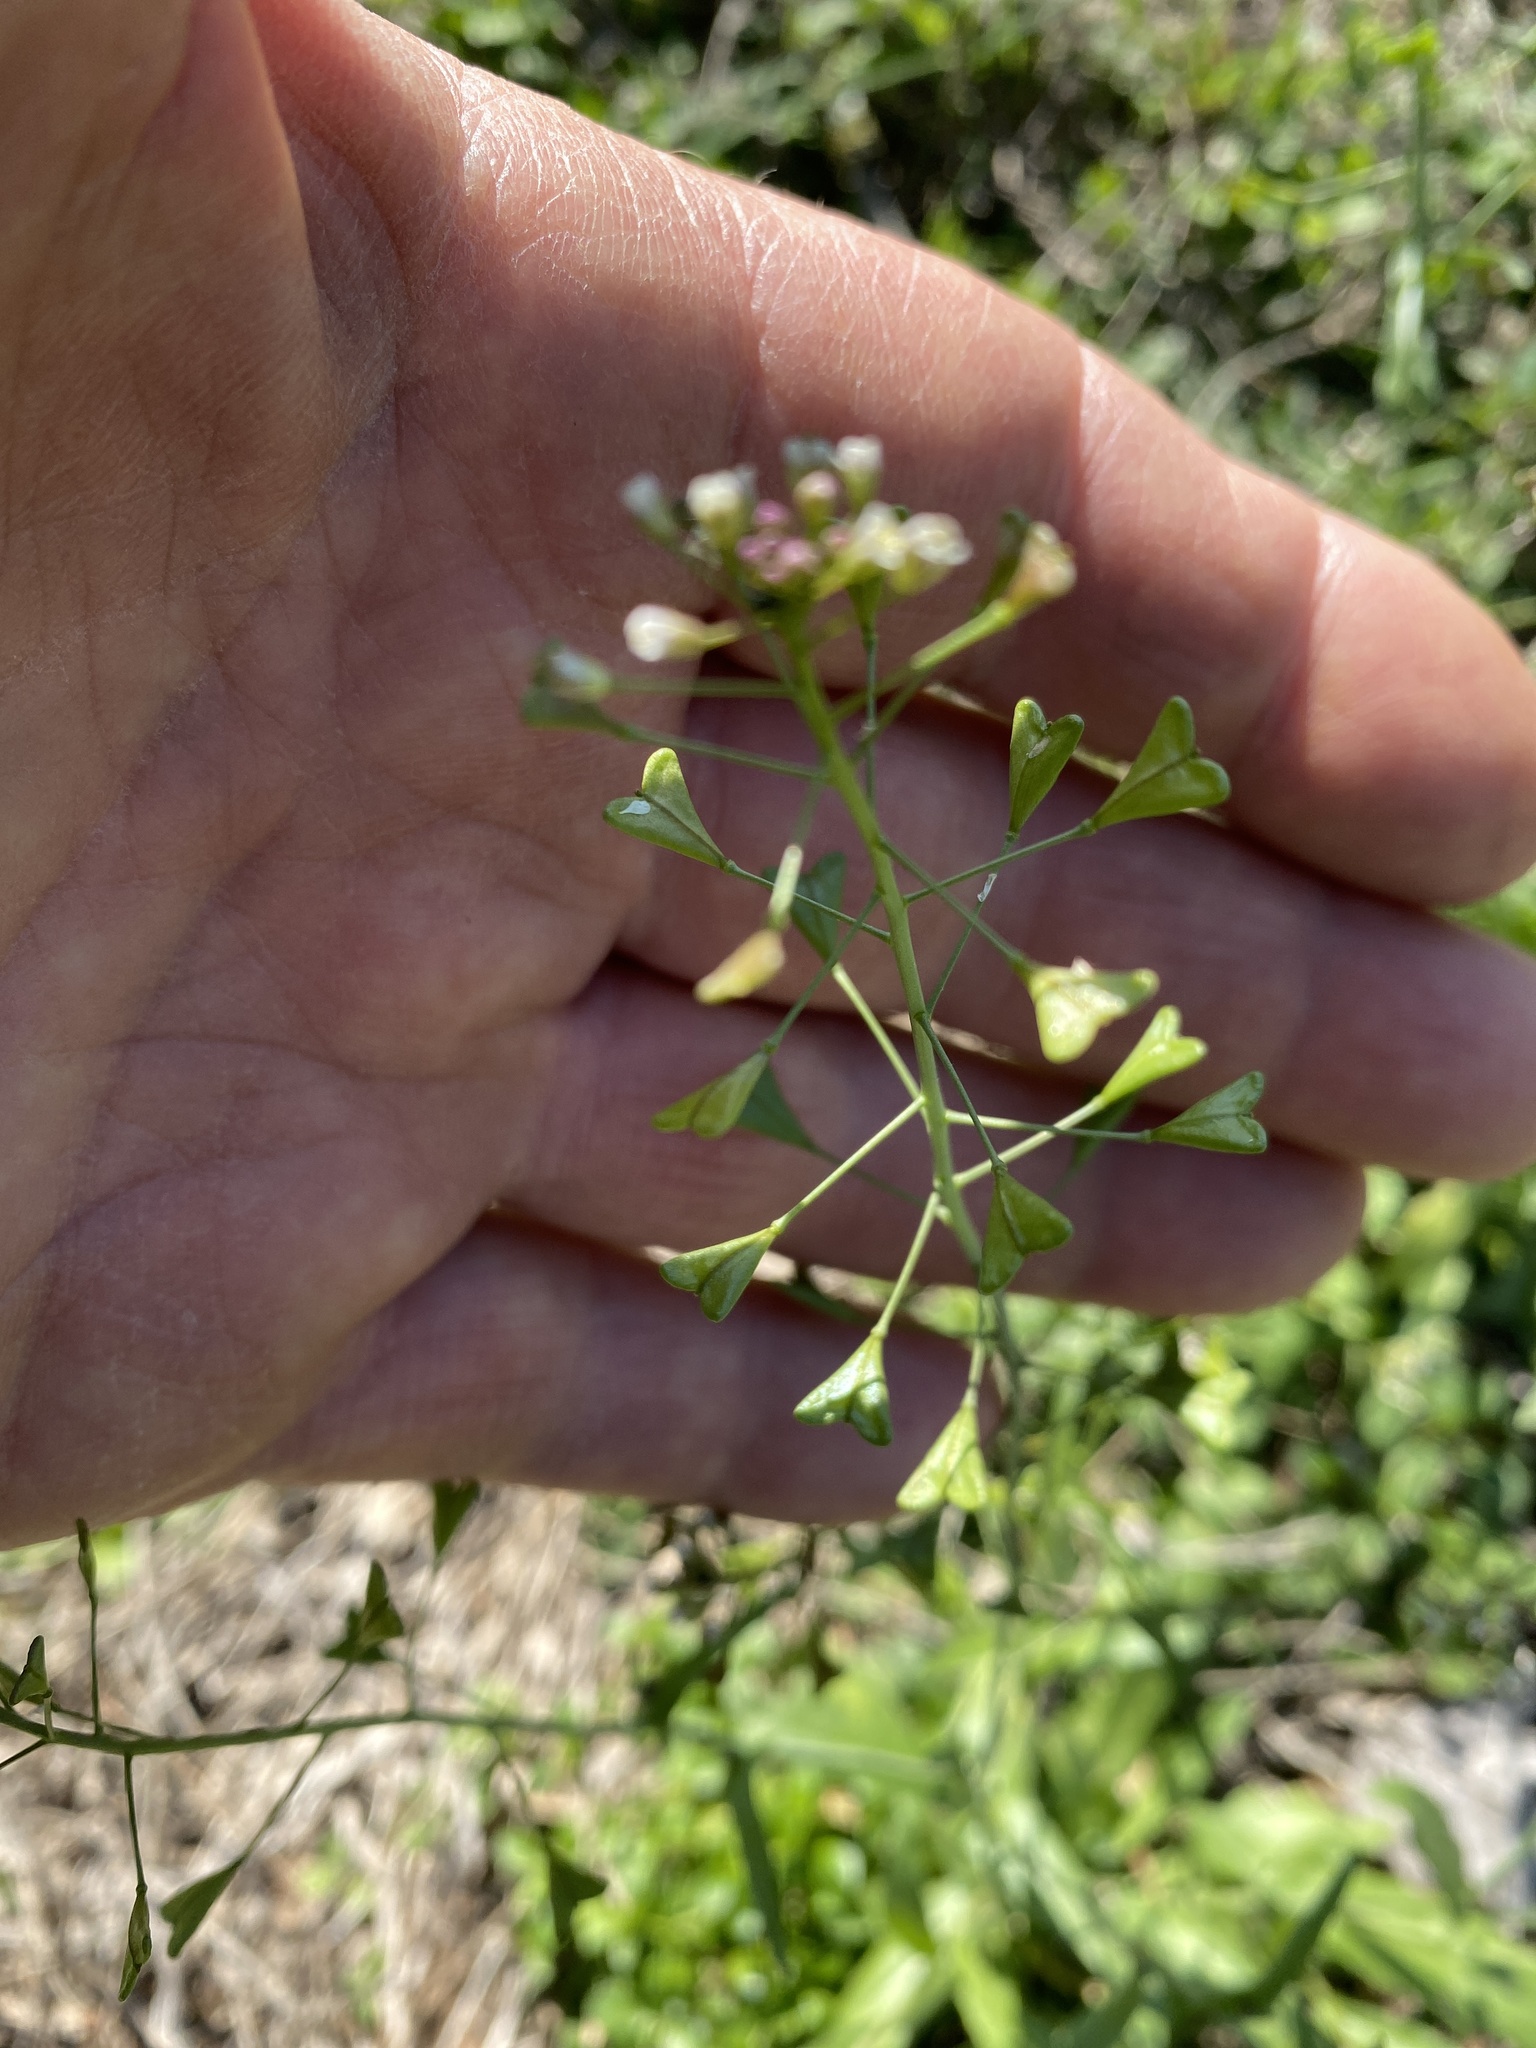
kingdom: Plantae
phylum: Tracheophyta
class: Magnoliopsida
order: Brassicales
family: Brassicaceae
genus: Capsella
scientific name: Capsella bursa-pastoris
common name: Shepherd's purse
